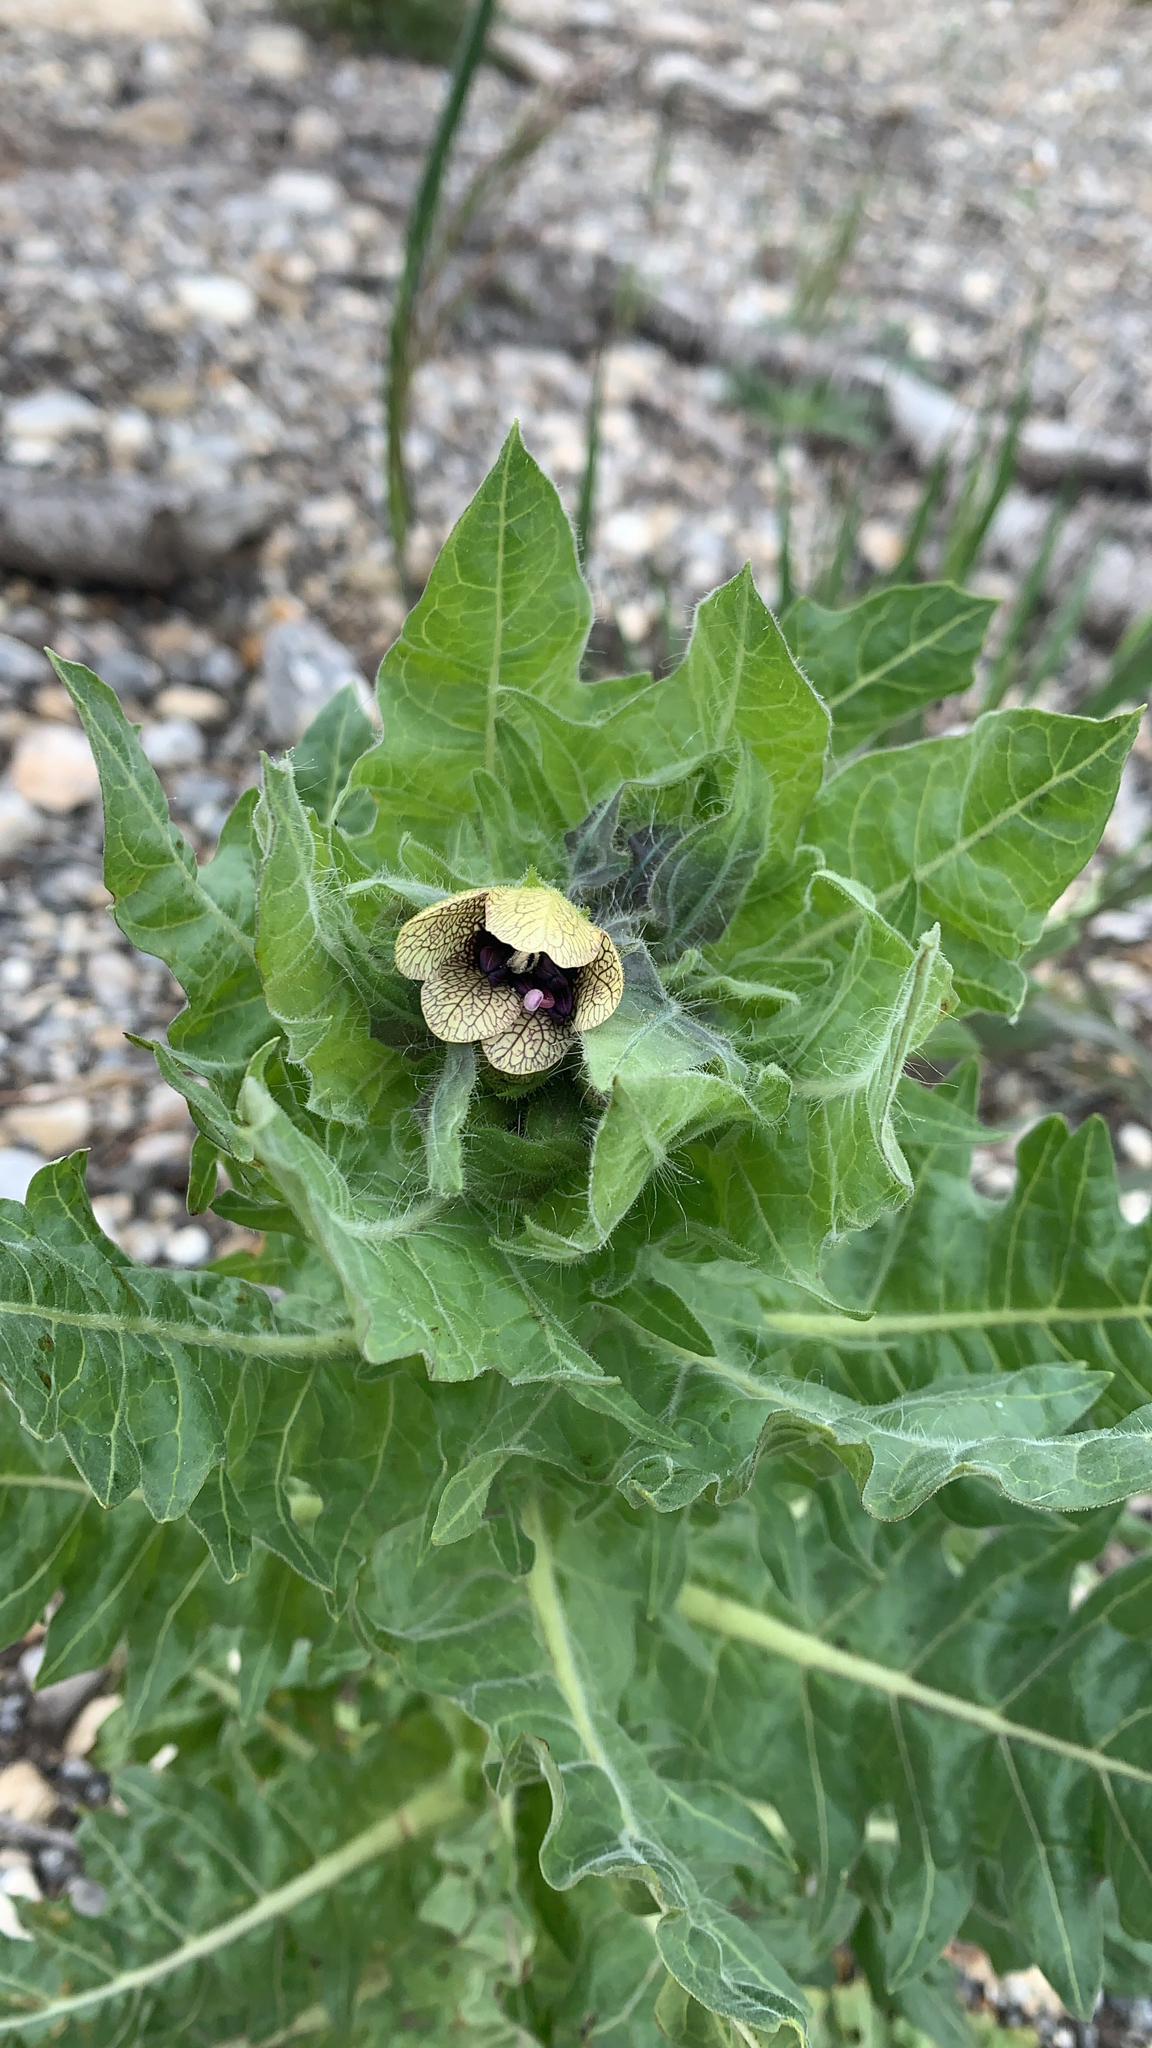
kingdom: Plantae
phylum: Tracheophyta
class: Magnoliopsida
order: Solanales
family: Solanaceae
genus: Hyoscyamus
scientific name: Hyoscyamus niger
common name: Henbane
